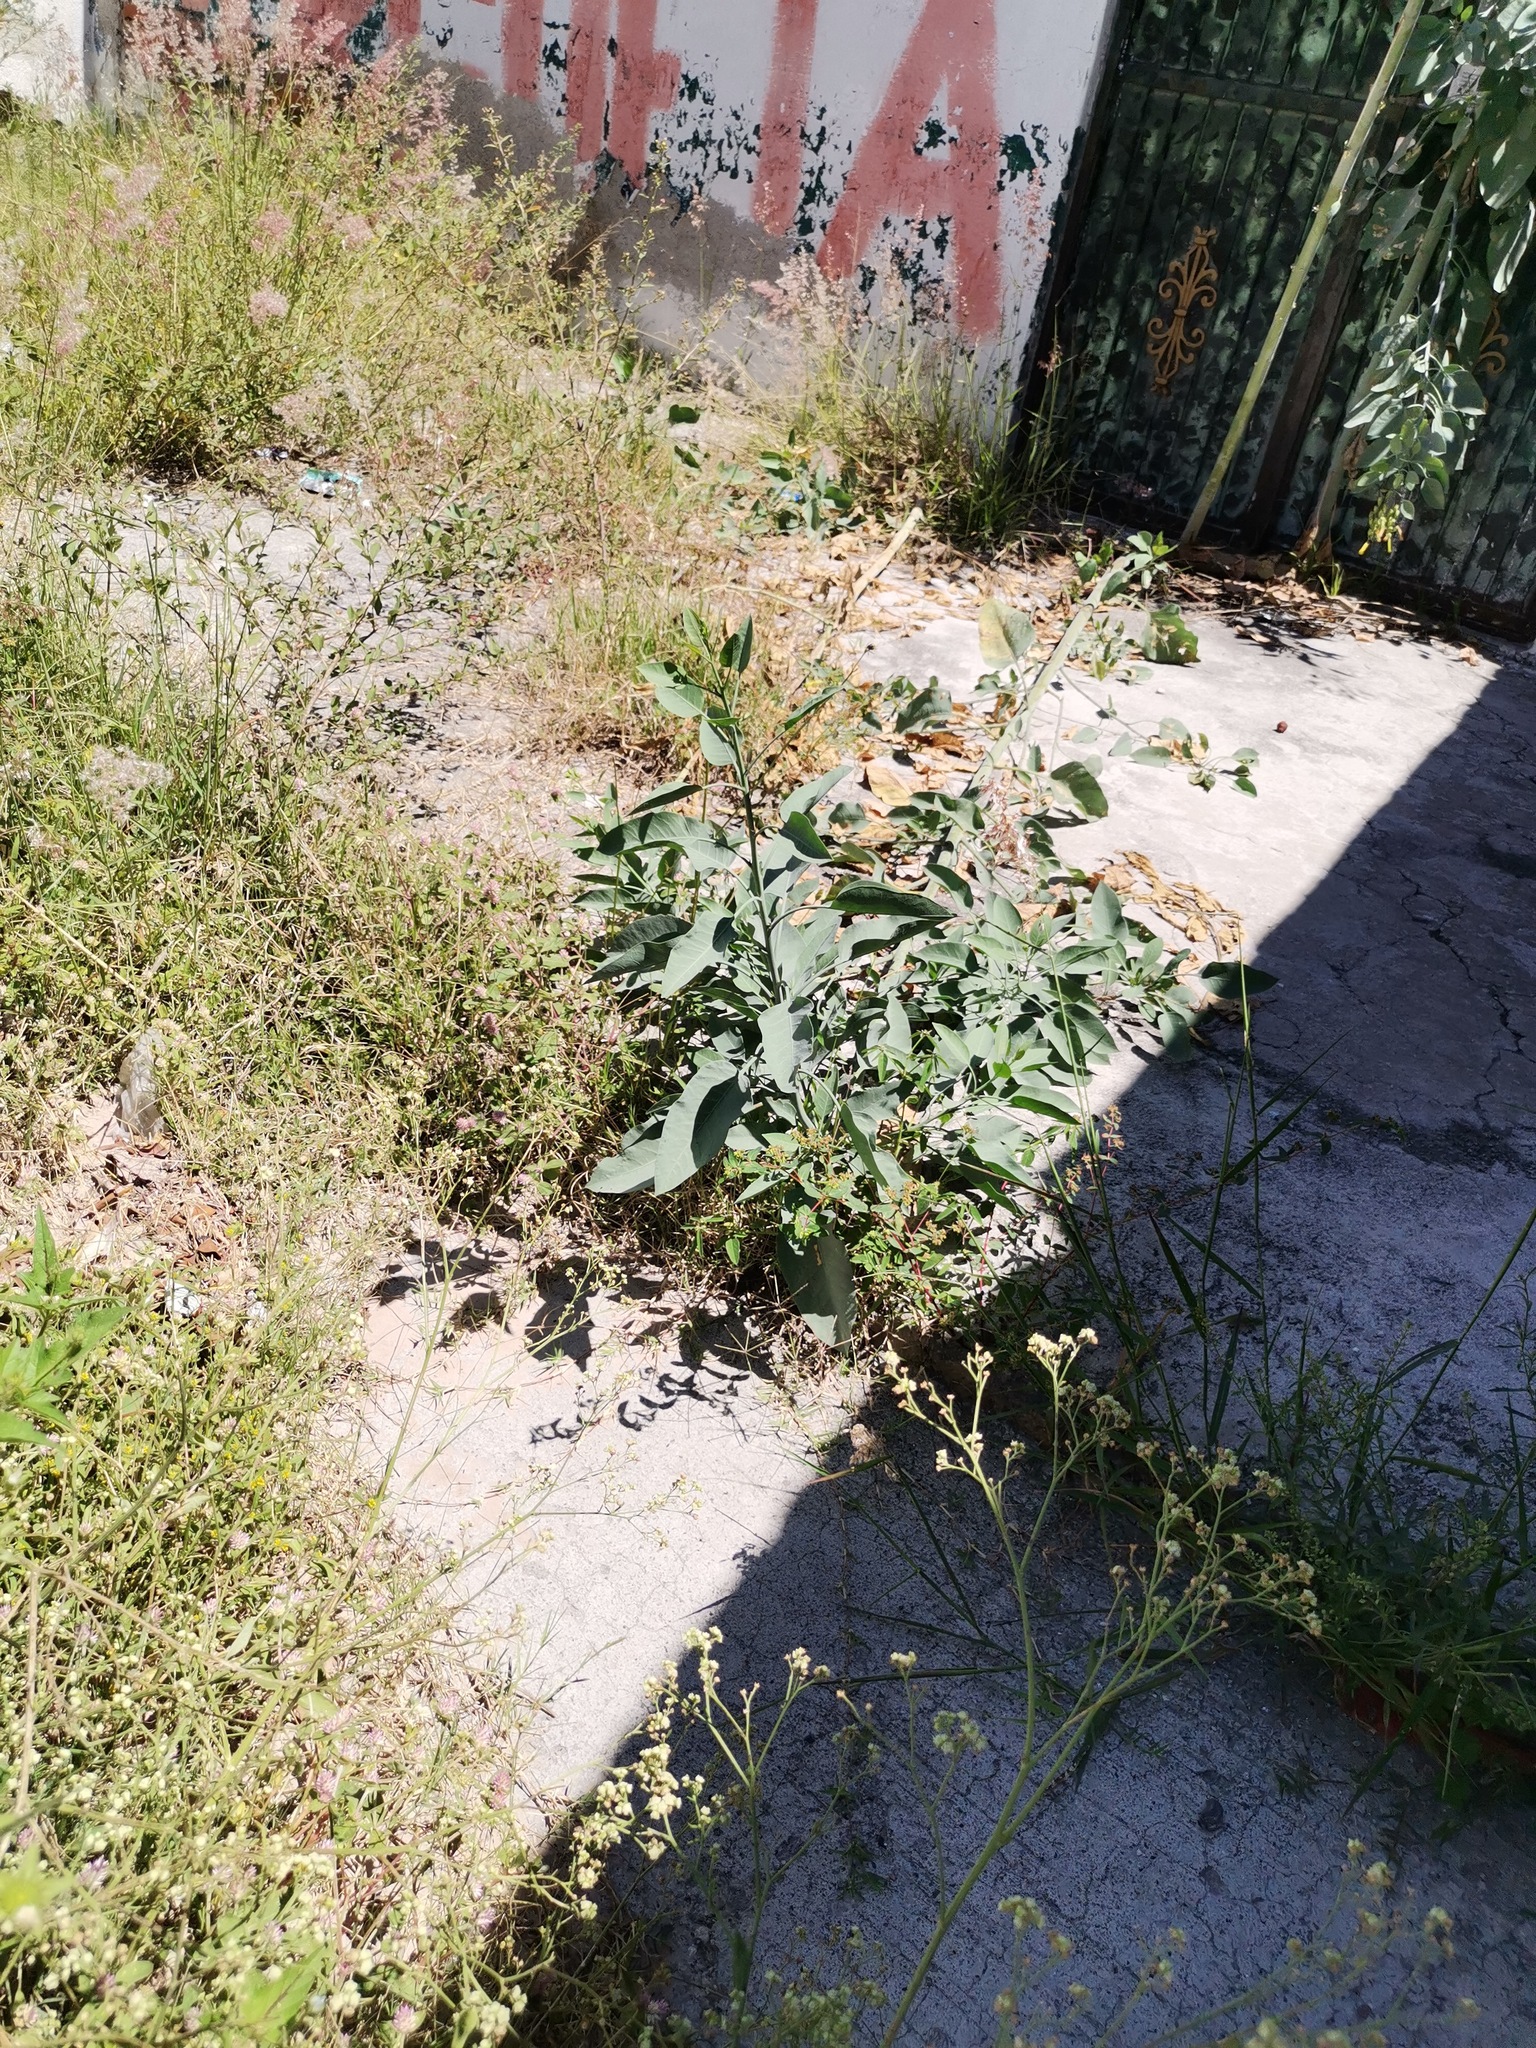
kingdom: Plantae
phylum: Tracheophyta
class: Magnoliopsida
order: Solanales
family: Solanaceae
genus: Nicotiana
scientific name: Nicotiana glauca
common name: Tree tobacco
